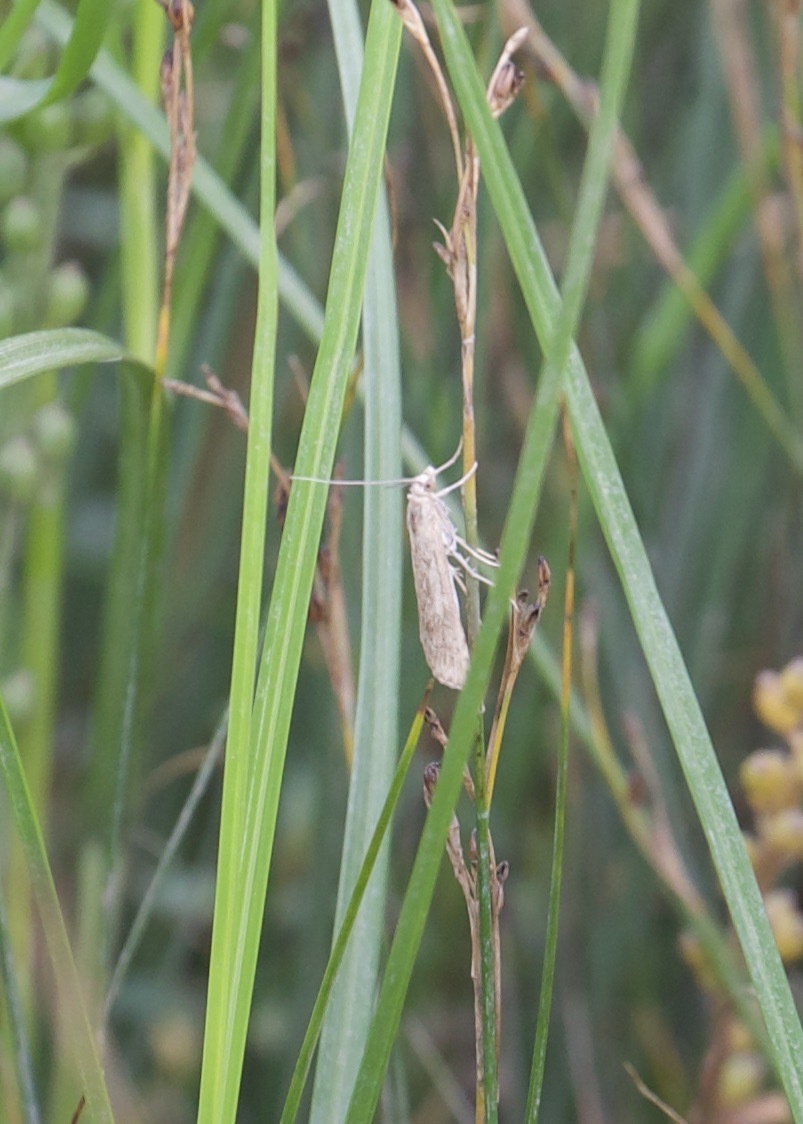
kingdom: Animalia
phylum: Arthropoda
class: Insecta
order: Lepidoptera
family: Crambidae
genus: Nomophila
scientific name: Nomophila noctuella
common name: Rush veneer
